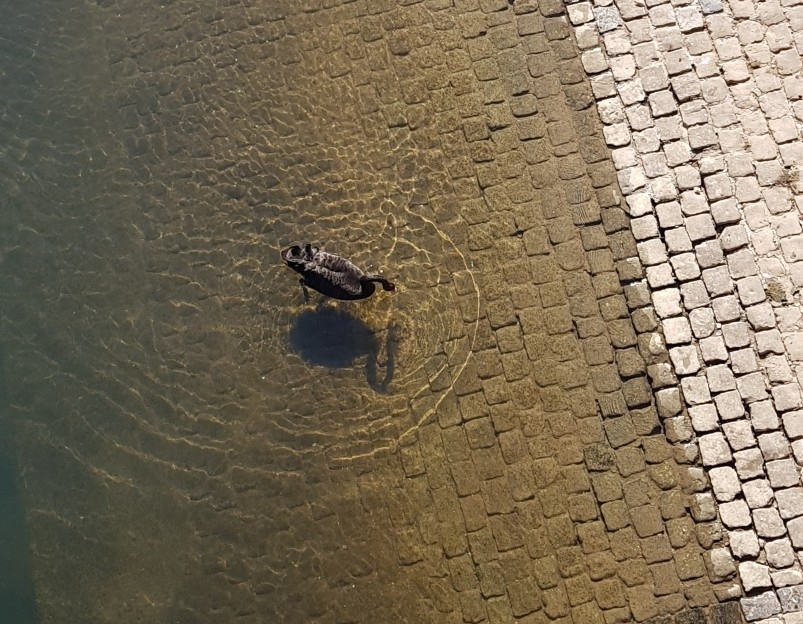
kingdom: Animalia
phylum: Chordata
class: Aves
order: Anseriformes
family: Anatidae
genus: Cygnus
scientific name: Cygnus atratus
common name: Black swan
